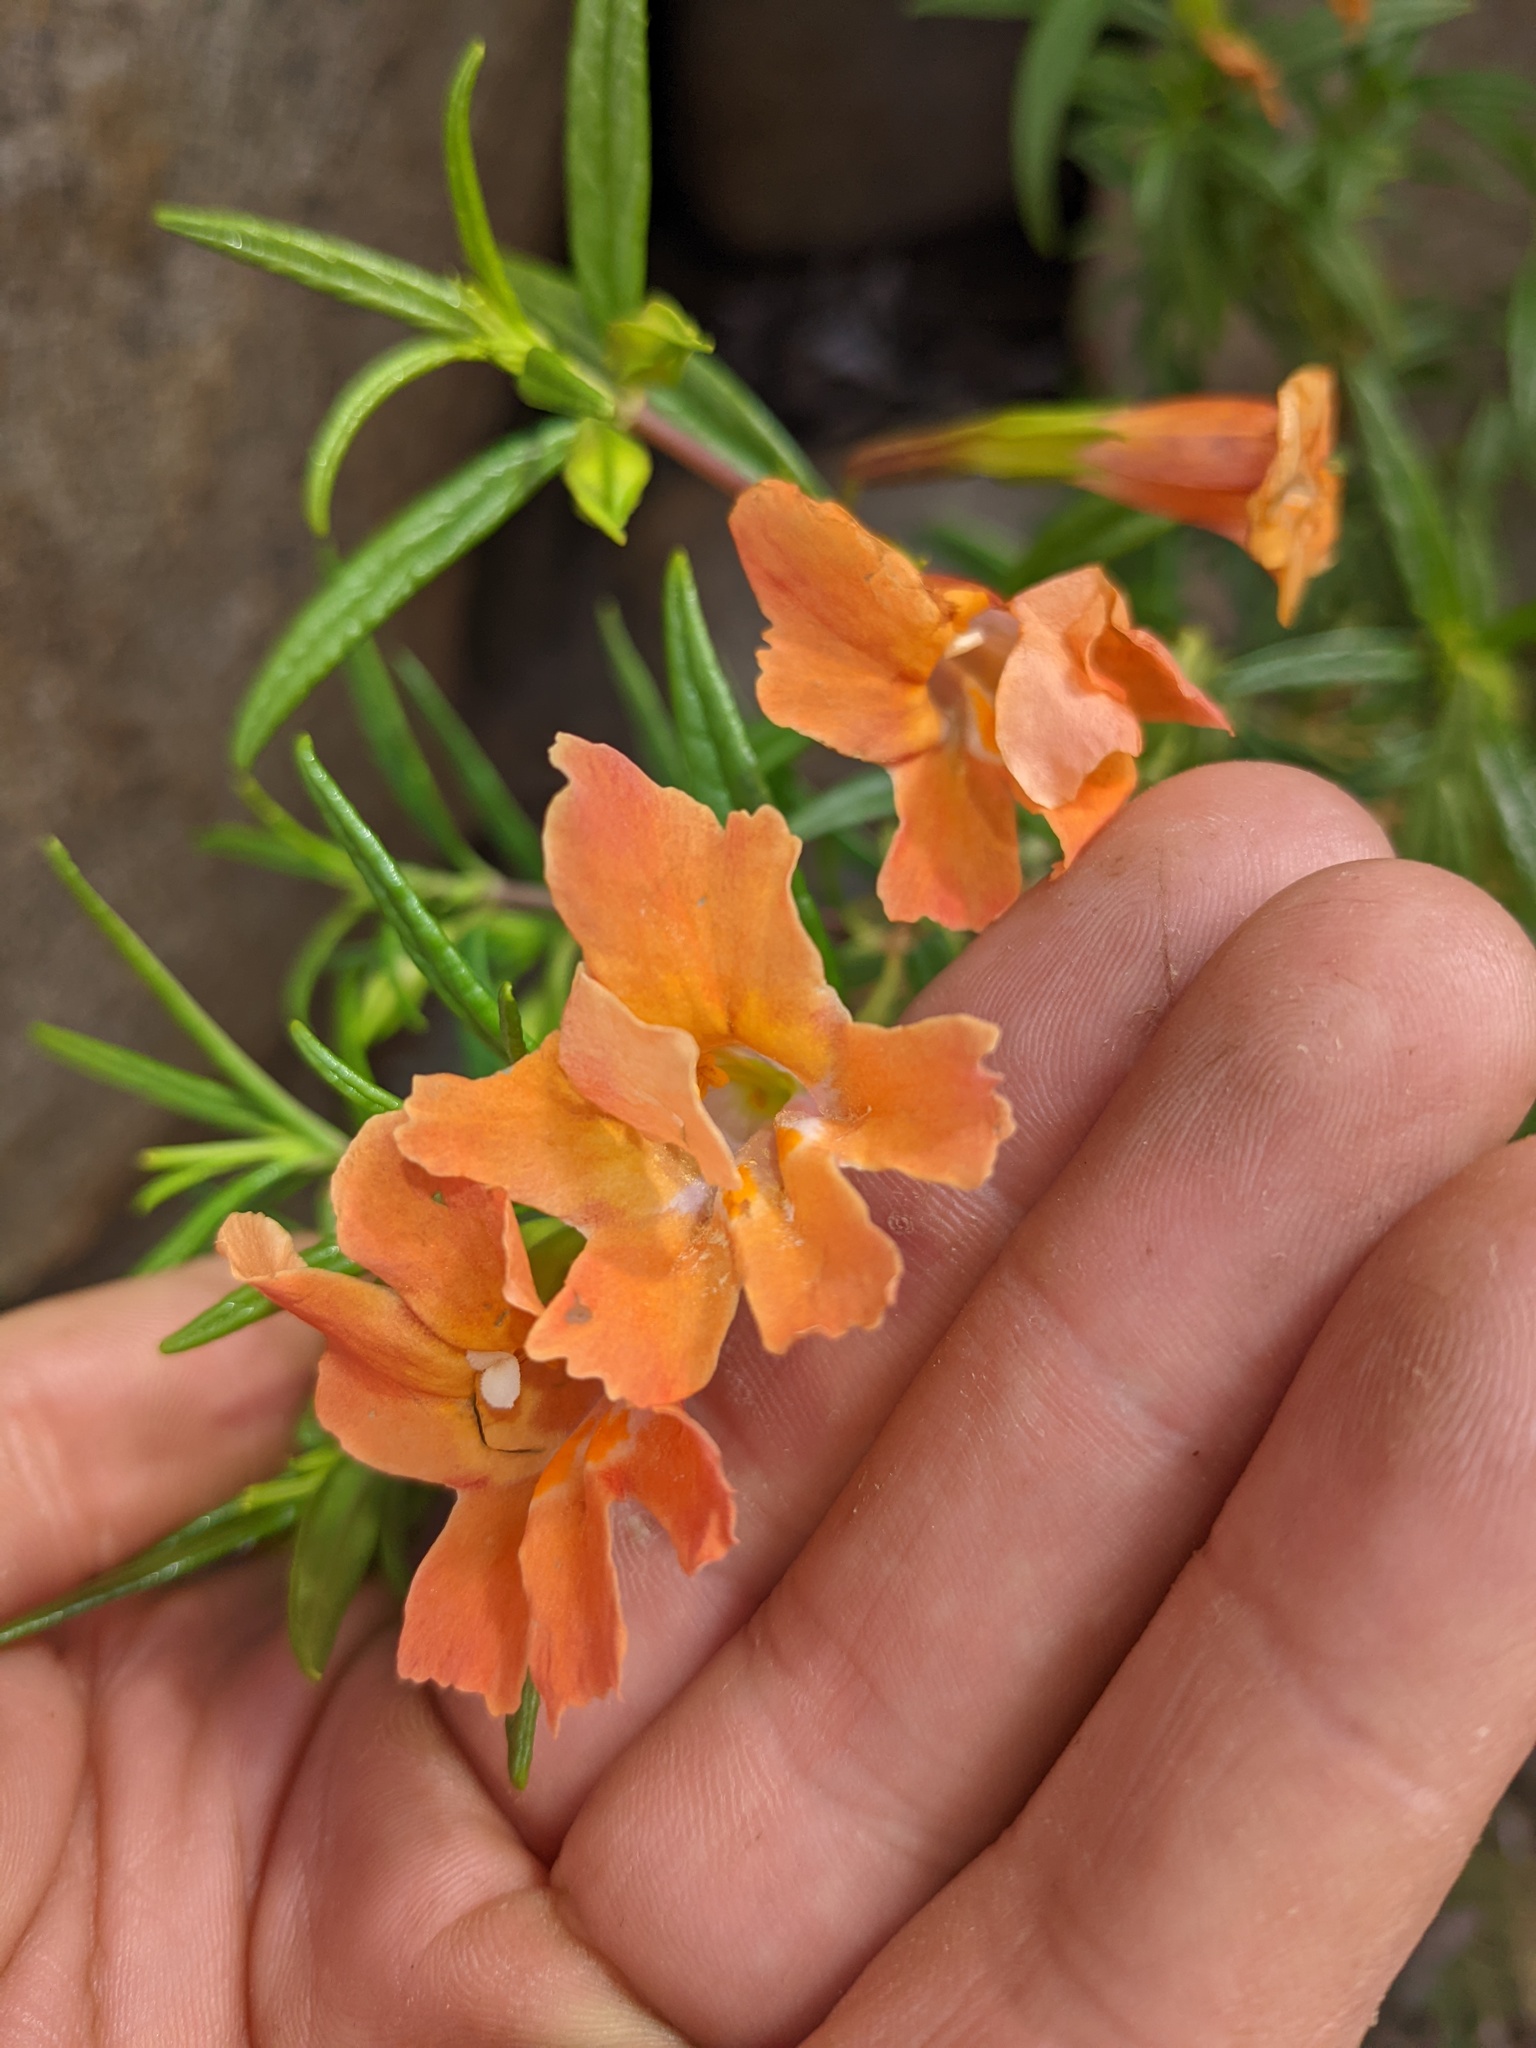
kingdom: Plantae
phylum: Tracheophyta
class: Magnoliopsida
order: Lamiales
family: Phrymaceae
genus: Diplacus
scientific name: Diplacus australis
